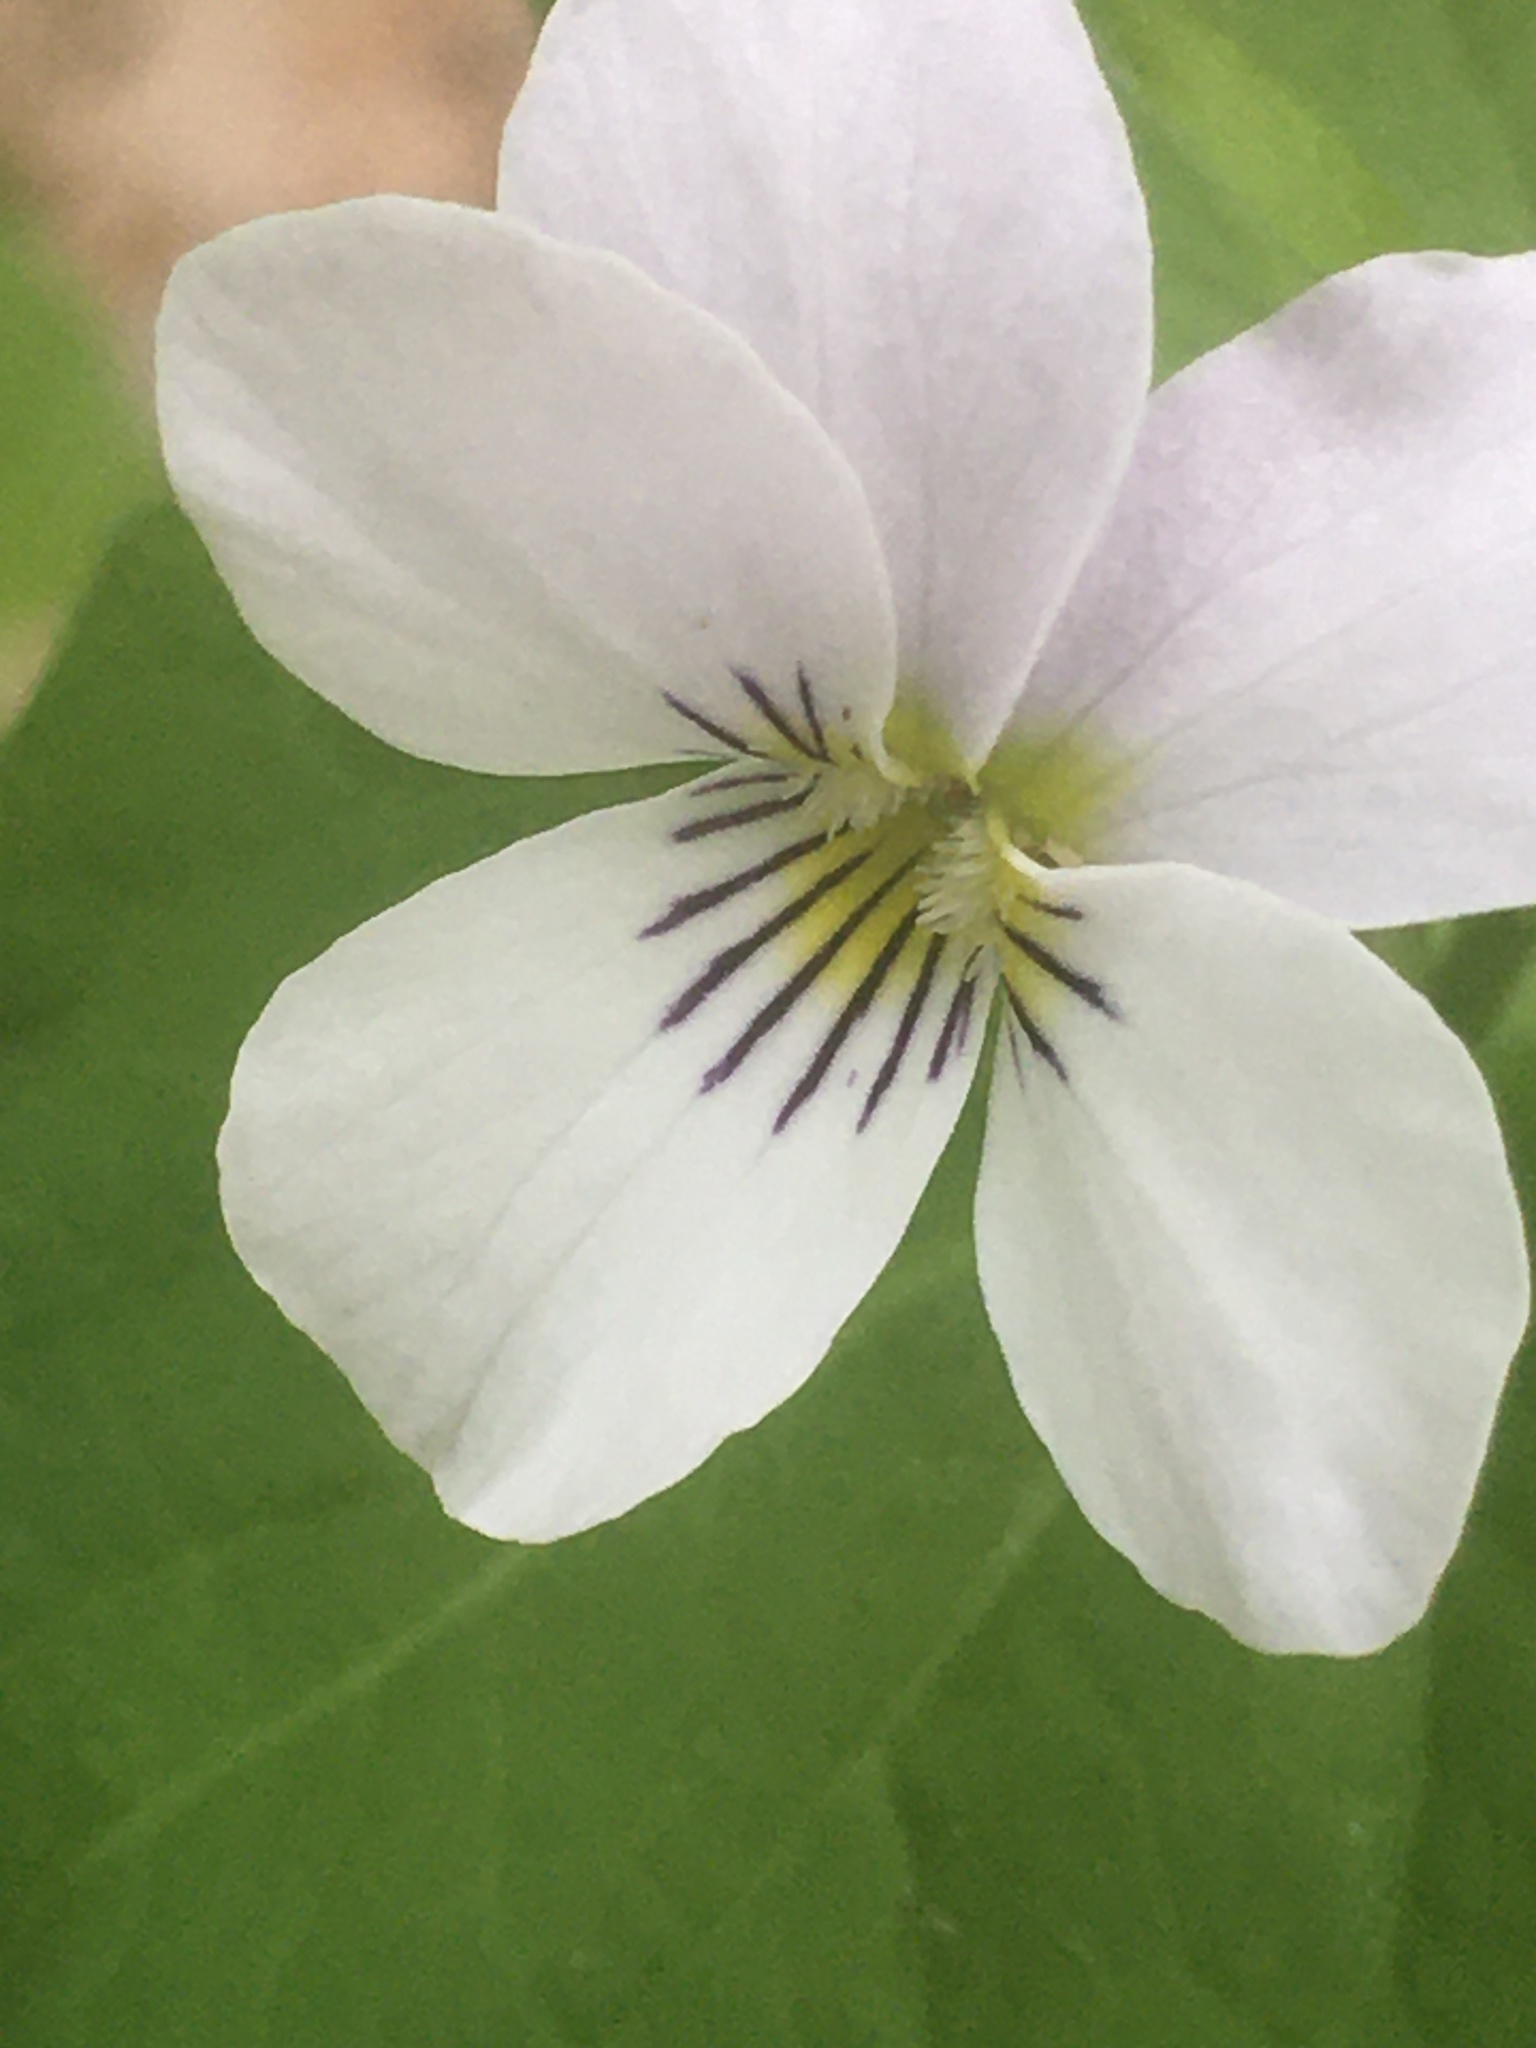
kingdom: Plantae
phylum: Tracheophyta
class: Magnoliopsida
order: Malpighiales
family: Violaceae
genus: Viola
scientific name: Viola canadensis
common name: Canada violet
